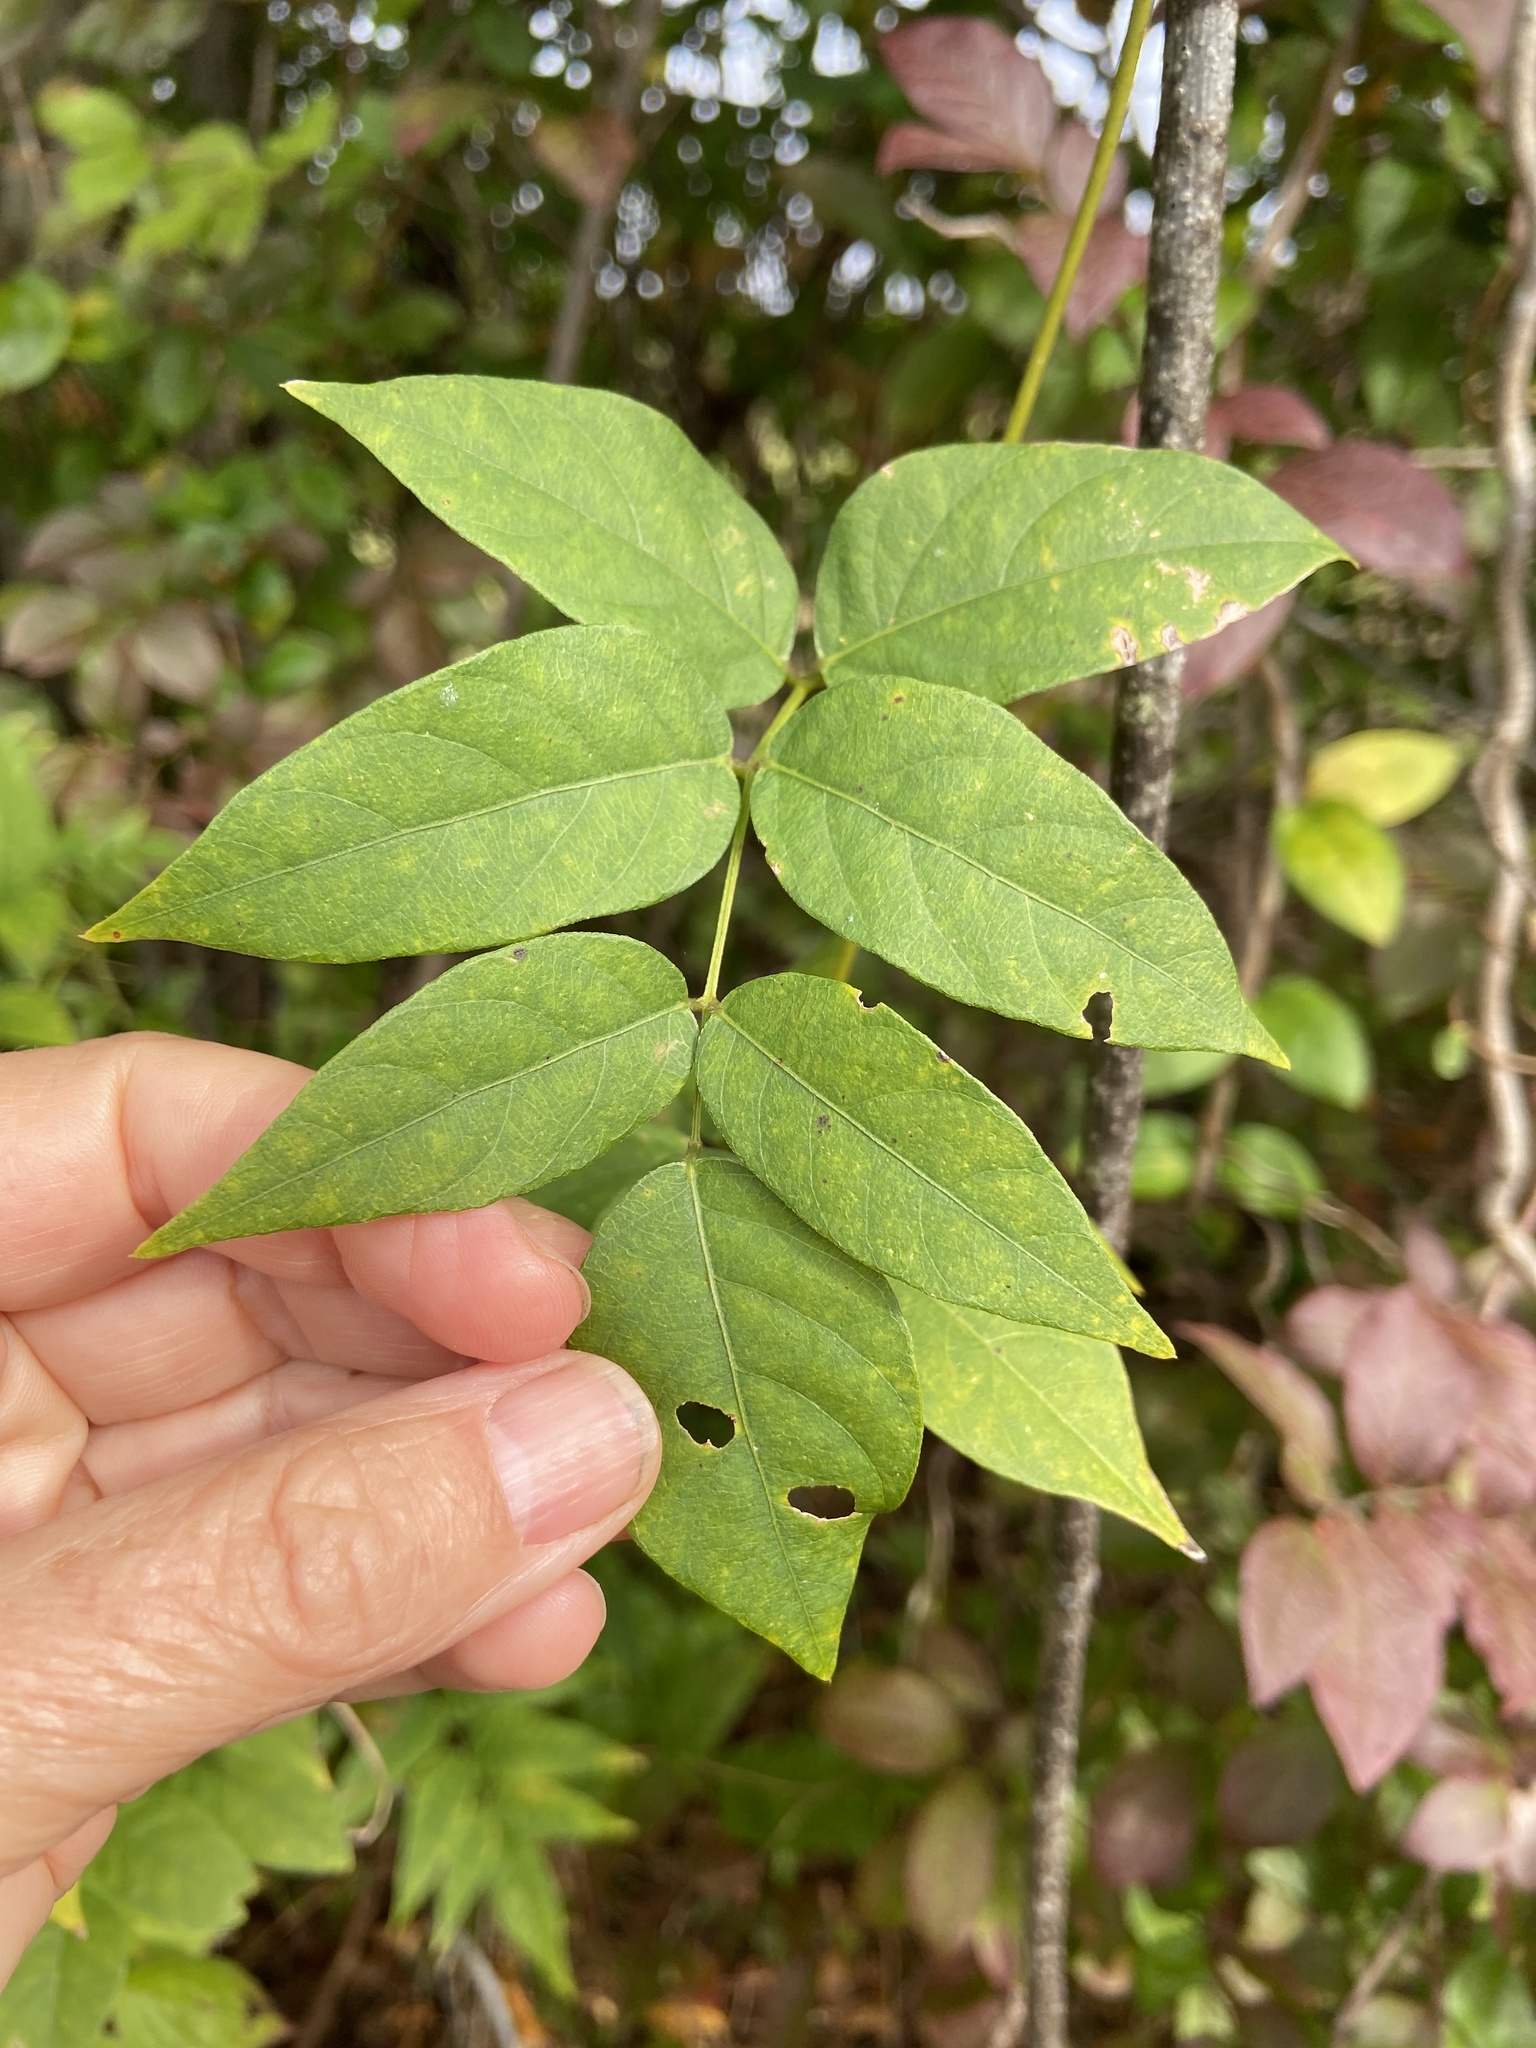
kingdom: Plantae
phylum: Tracheophyta
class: Magnoliopsida
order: Fabales
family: Fabaceae
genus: Apios
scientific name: Apios americana
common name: American potato-bean
